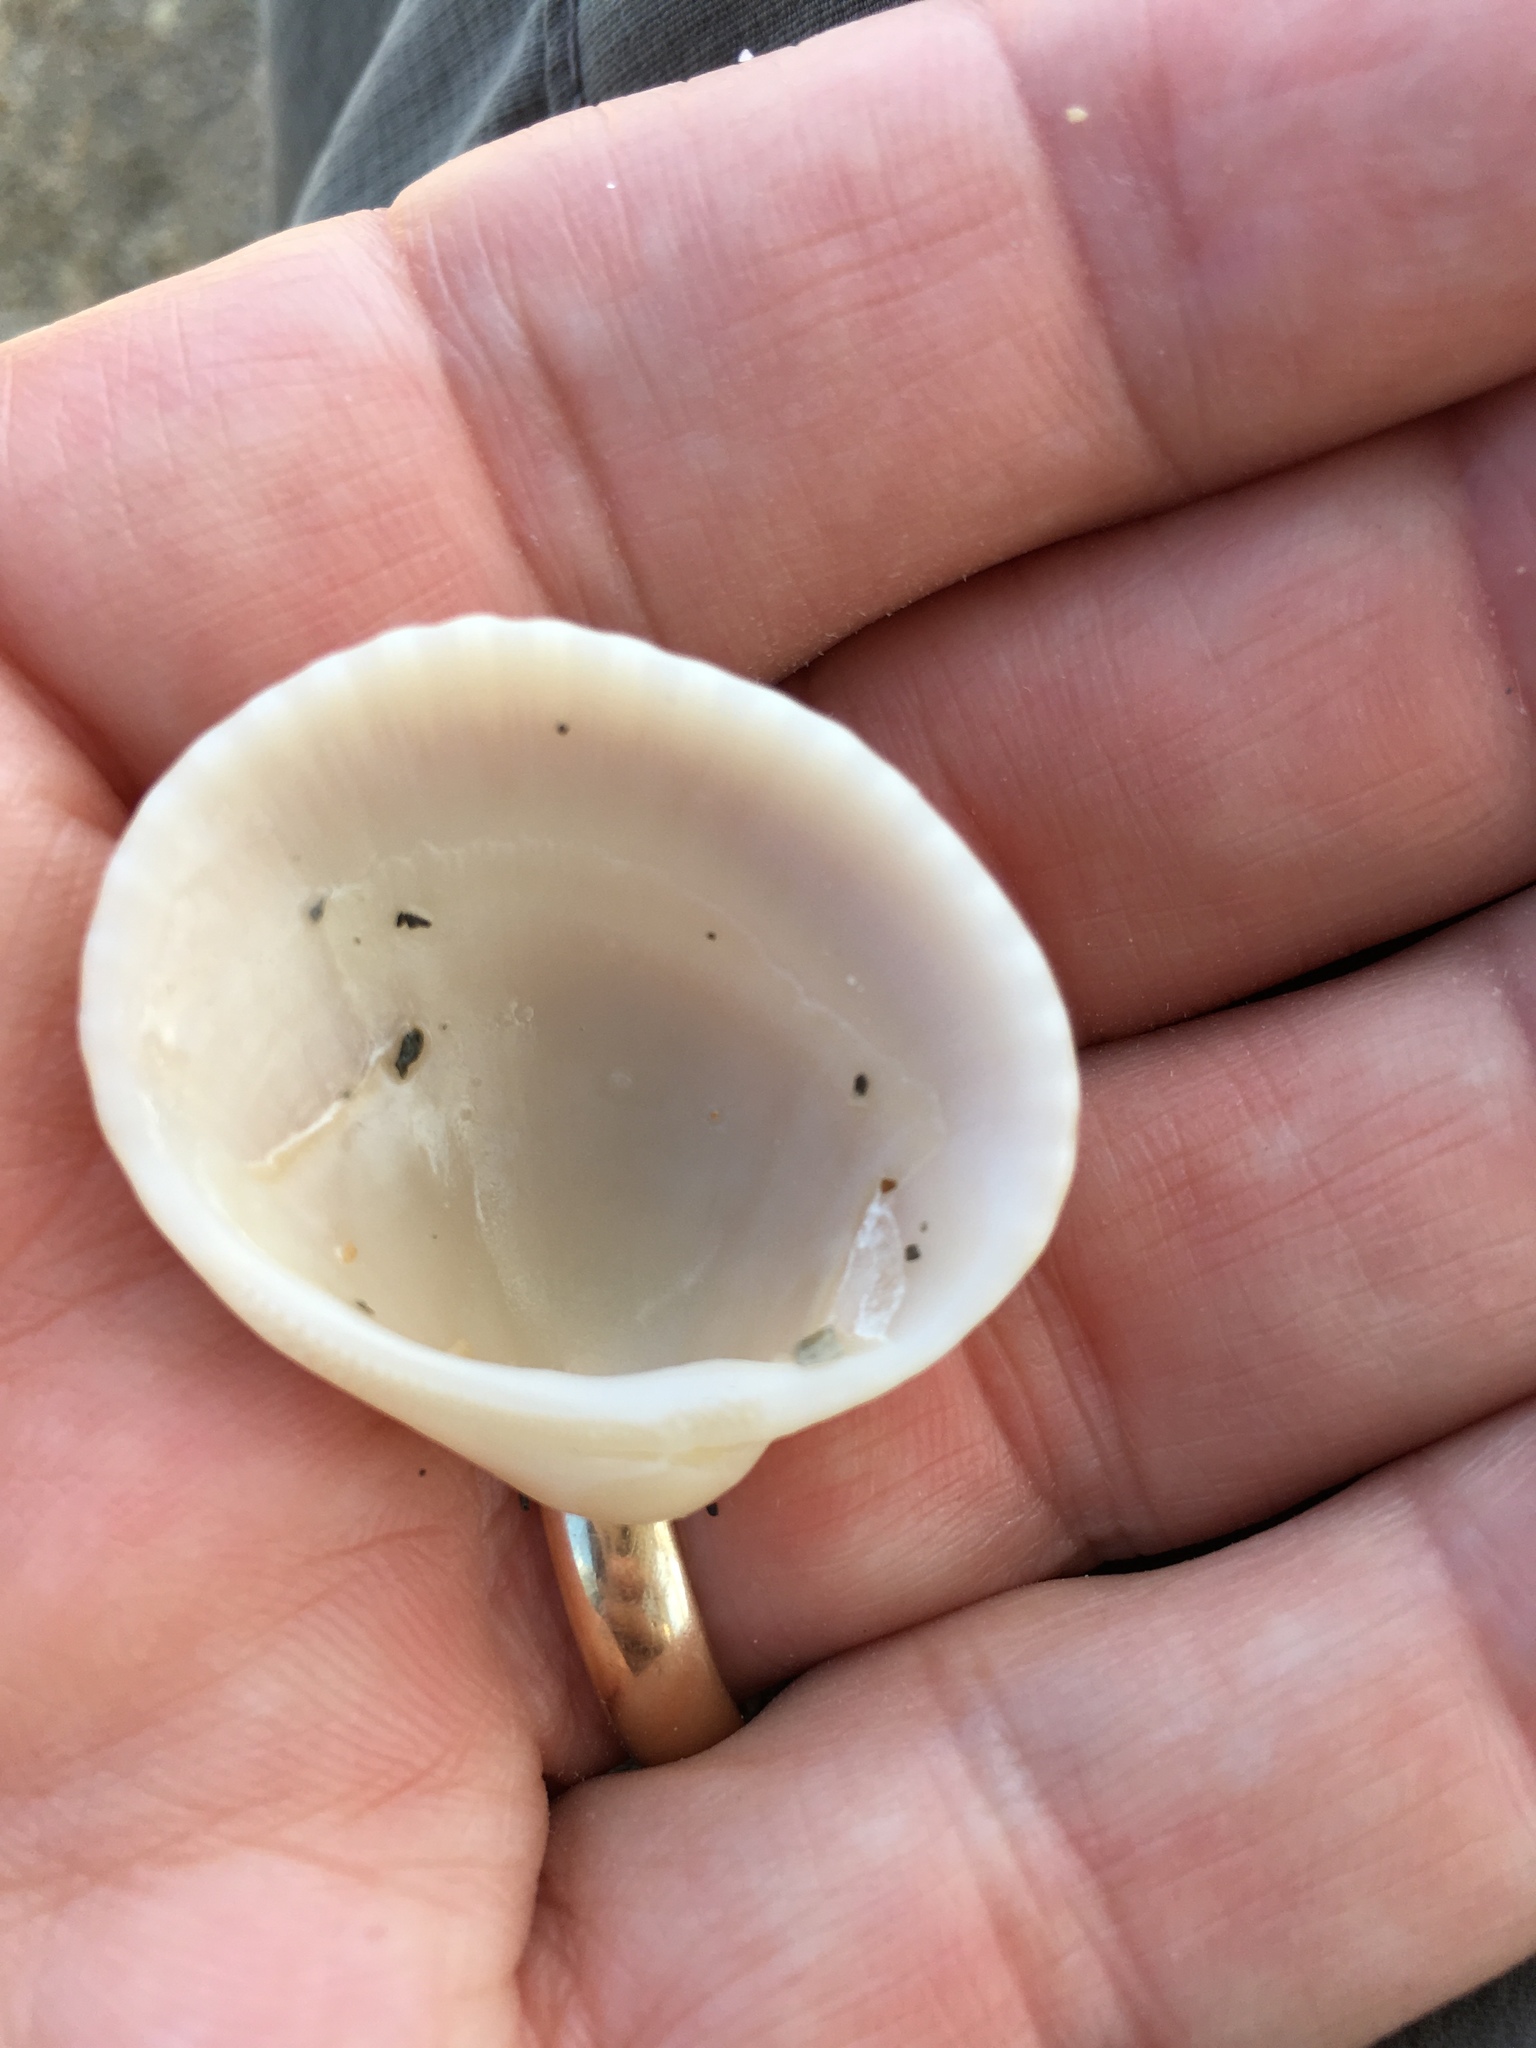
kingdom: Animalia
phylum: Mollusca
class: Bivalvia
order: Arcida
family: Arcidae
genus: Lunarca
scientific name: Lunarca ovalis
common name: Blood ark
